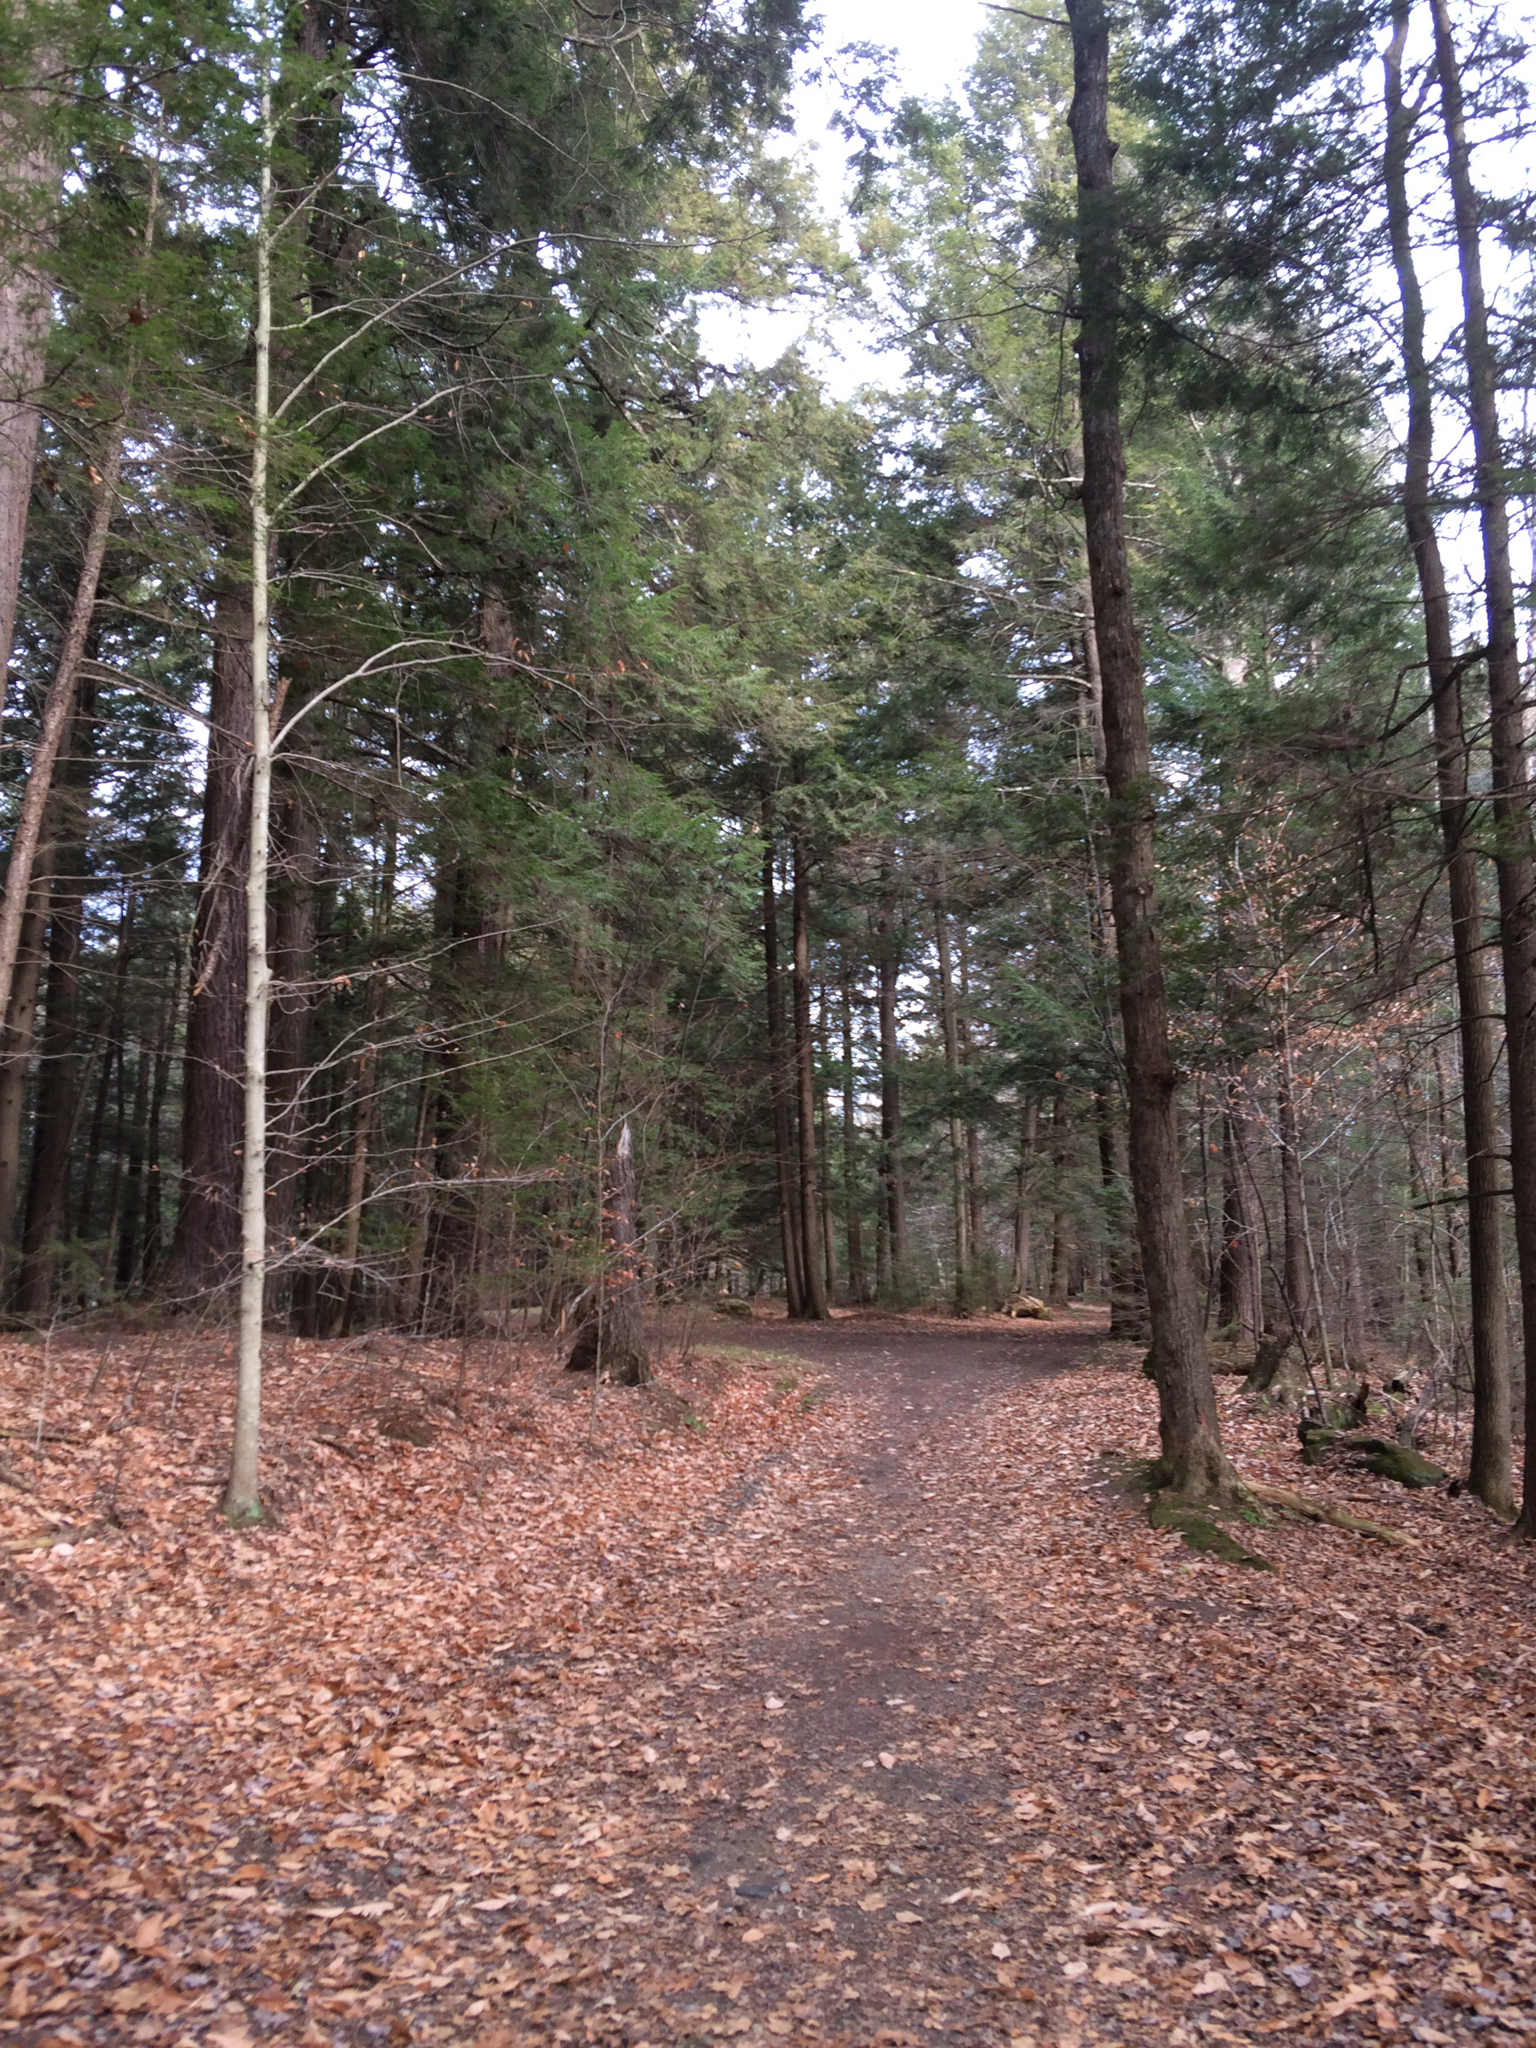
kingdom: Plantae
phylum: Tracheophyta
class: Pinopsida
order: Pinales
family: Pinaceae
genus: Tsuga
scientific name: Tsuga canadensis
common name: Eastern hemlock
